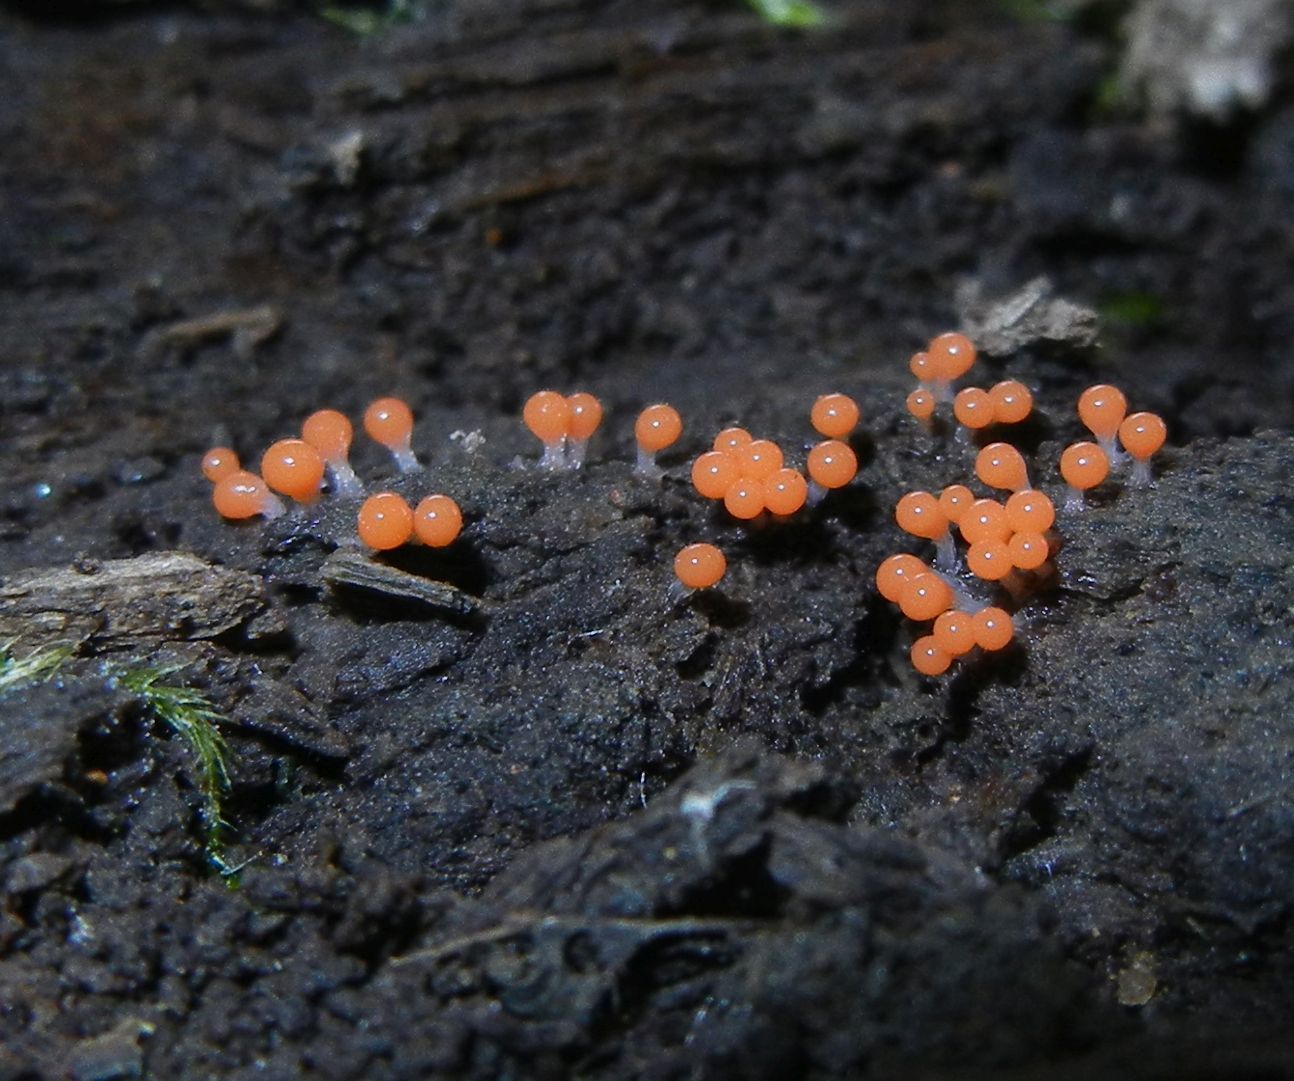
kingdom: Protozoa
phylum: Mycetozoa
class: Myxomycetes
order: Trichiales
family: Arcyriaceae
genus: Hemitrichia
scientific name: Hemitrichia decipiens
